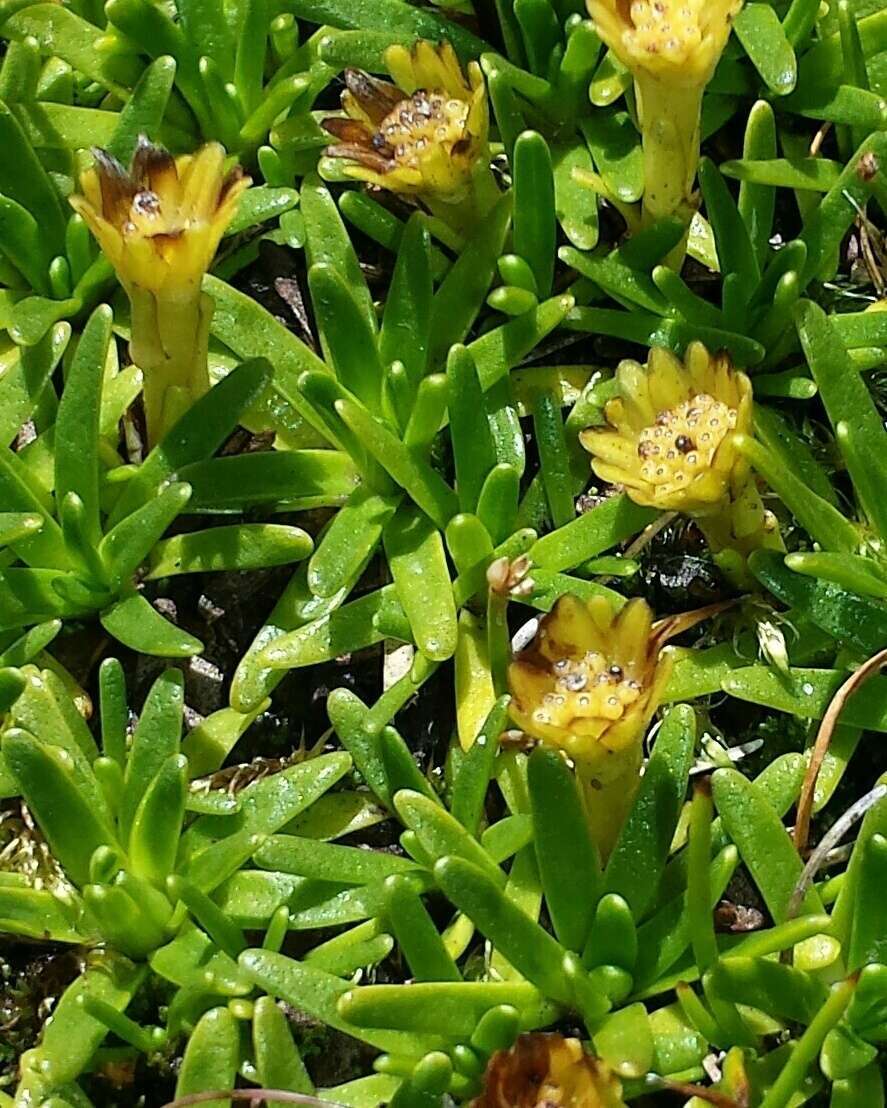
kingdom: Plantae
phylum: Tracheophyta
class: Magnoliopsida
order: Asterales
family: Asteraceae
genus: Abrotanella
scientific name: Abrotanella nivigena
